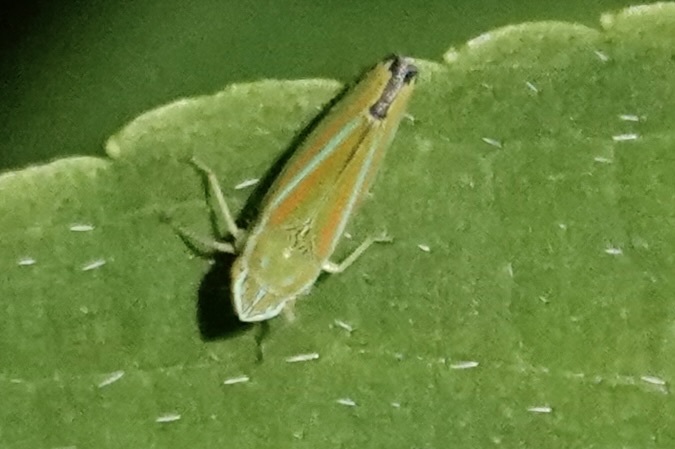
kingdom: Animalia
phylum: Arthropoda
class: Insecta
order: Hemiptera
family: Cicadellidae
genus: Graphocephala
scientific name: Graphocephala versuta
